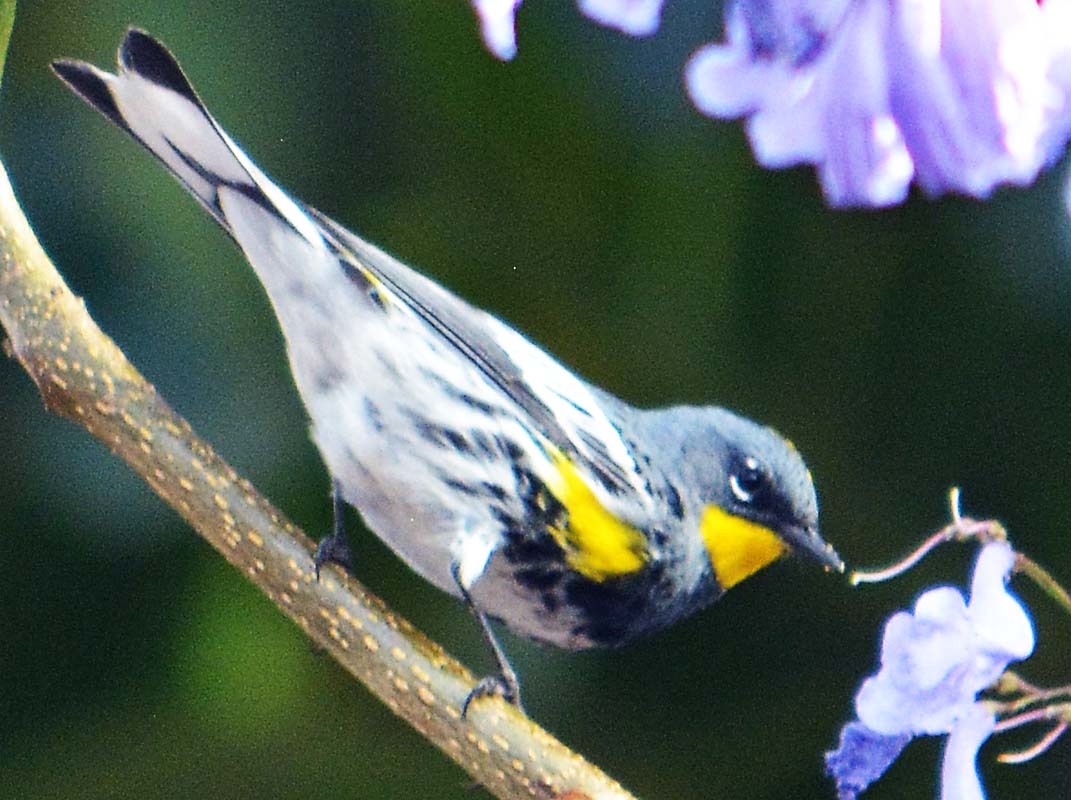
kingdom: Animalia
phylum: Chordata
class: Aves
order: Passeriformes
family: Parulidae
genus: Setophaga
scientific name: Setophaga auduboni
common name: Audubon's warbler
